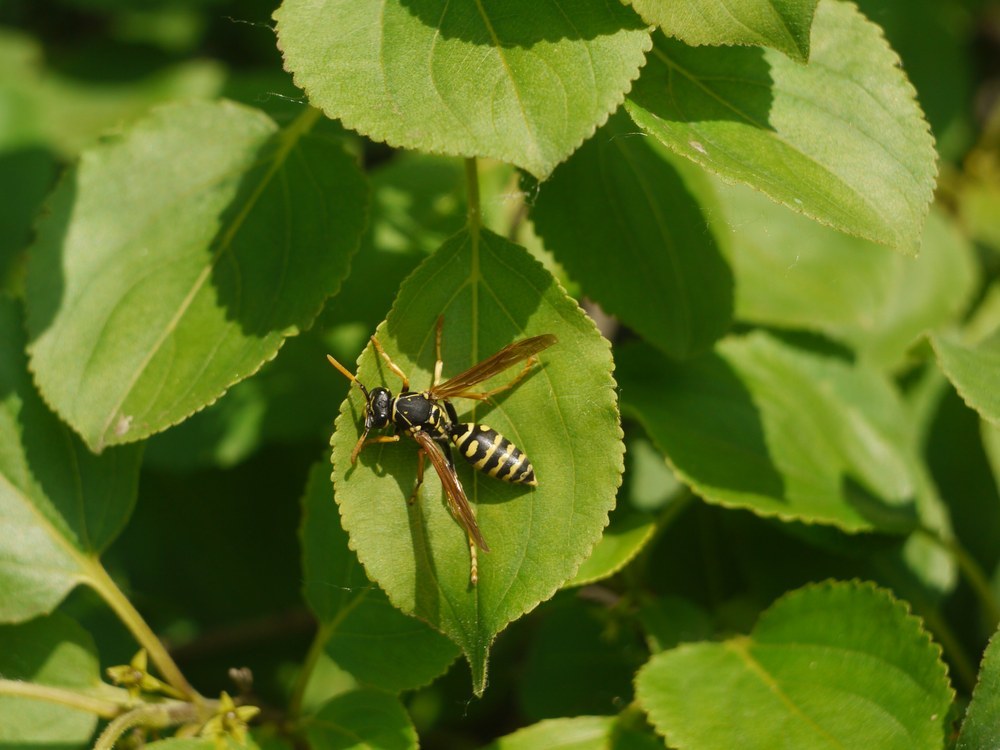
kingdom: Animalia
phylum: Arthropoda
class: Insecta
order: Hymenoptera
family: Eumenidae
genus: Polistes
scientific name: Polistes dominula
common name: Paper wasp
